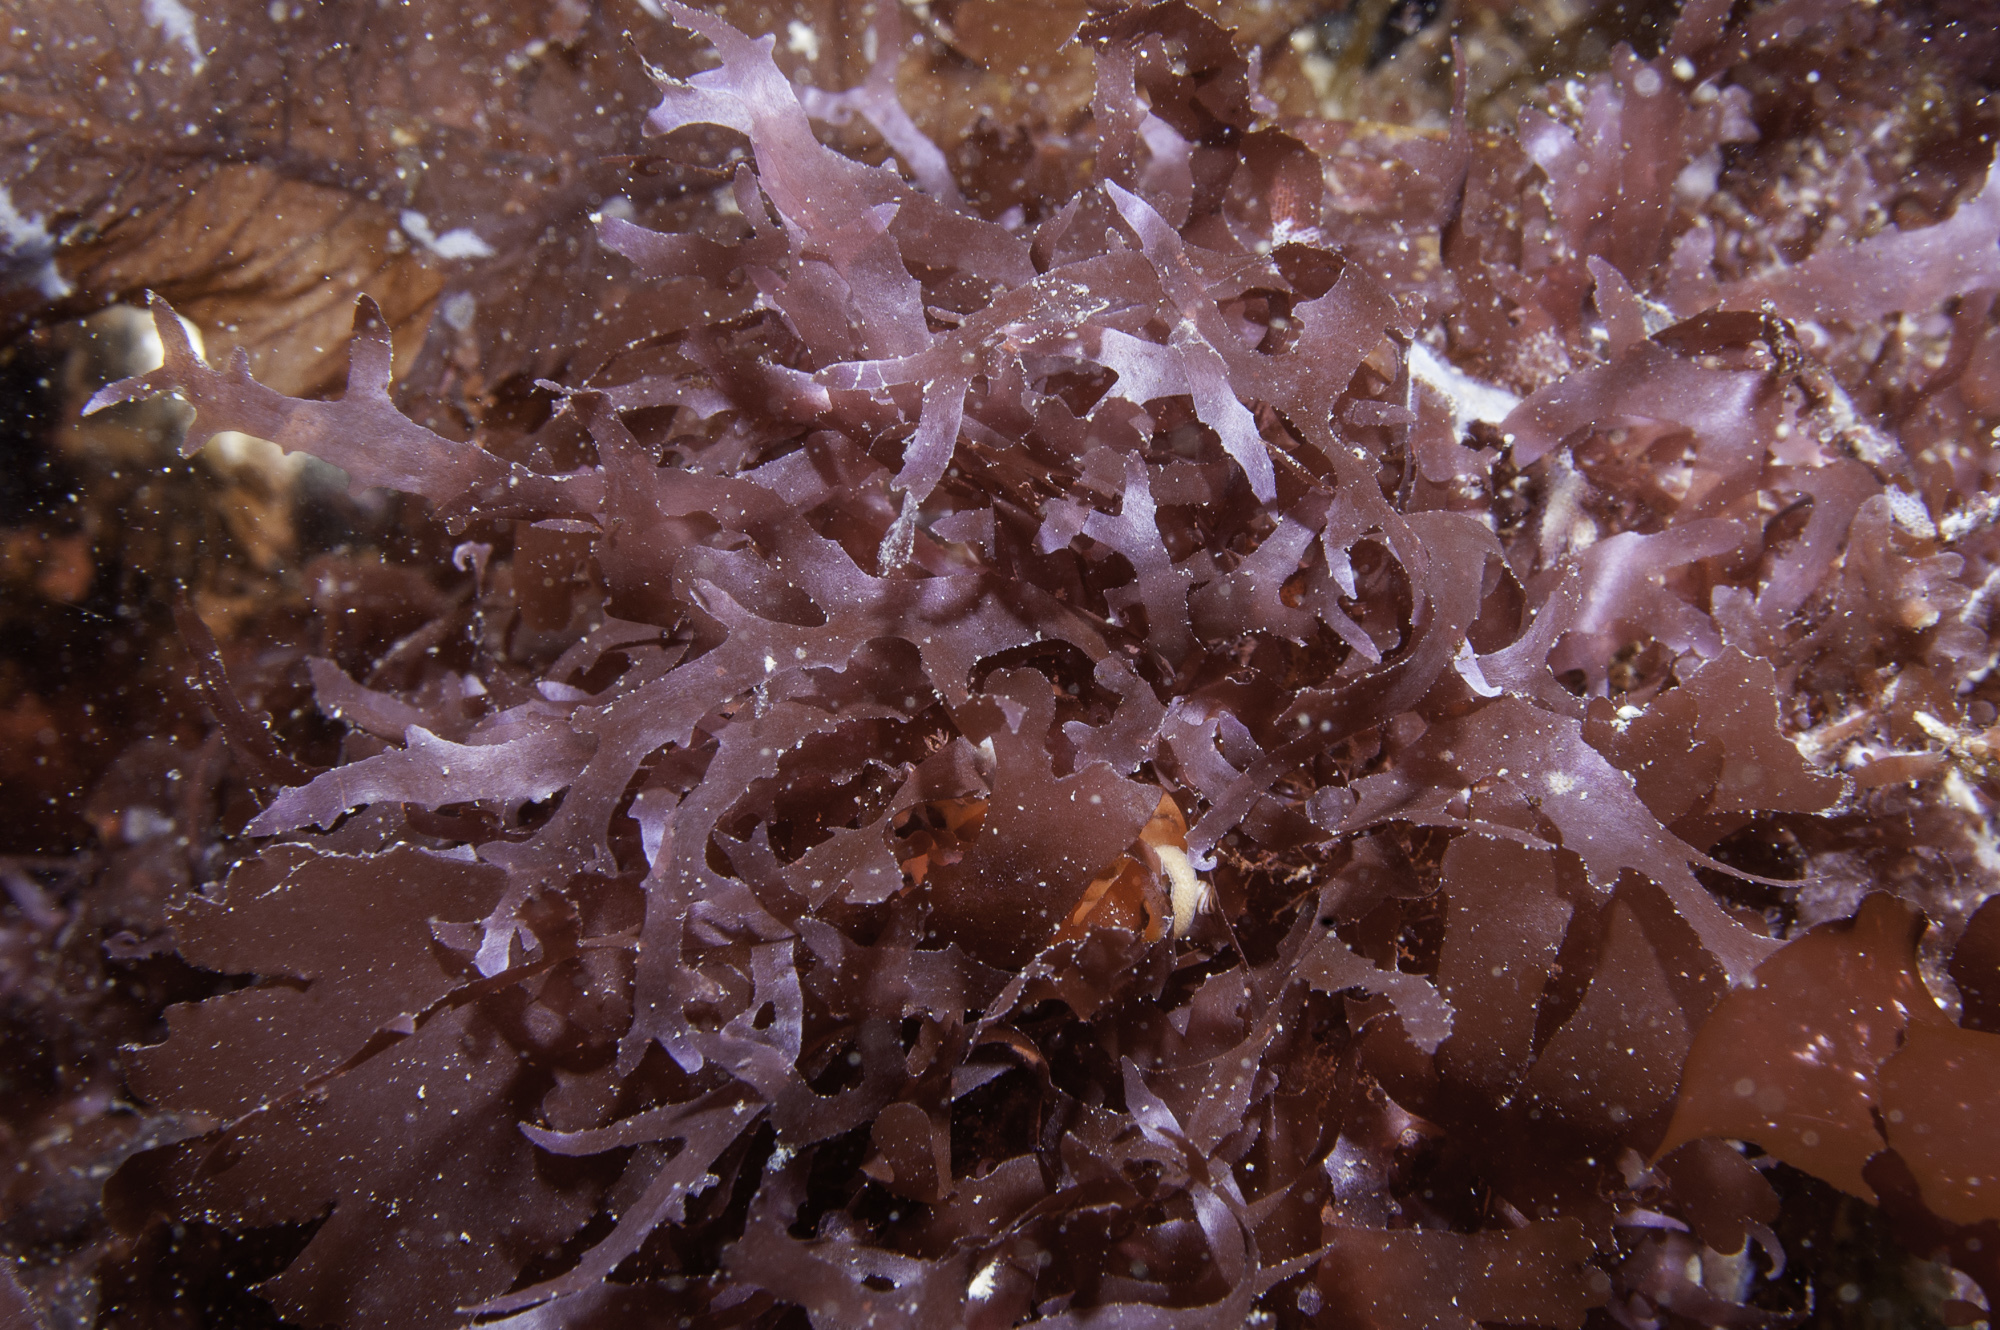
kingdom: Plantae
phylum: Rhodophyta
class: Florideophyceae
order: Ceramiales
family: Delesseriaceae
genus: Acrosorium
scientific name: Acrosorium ciliolatum
